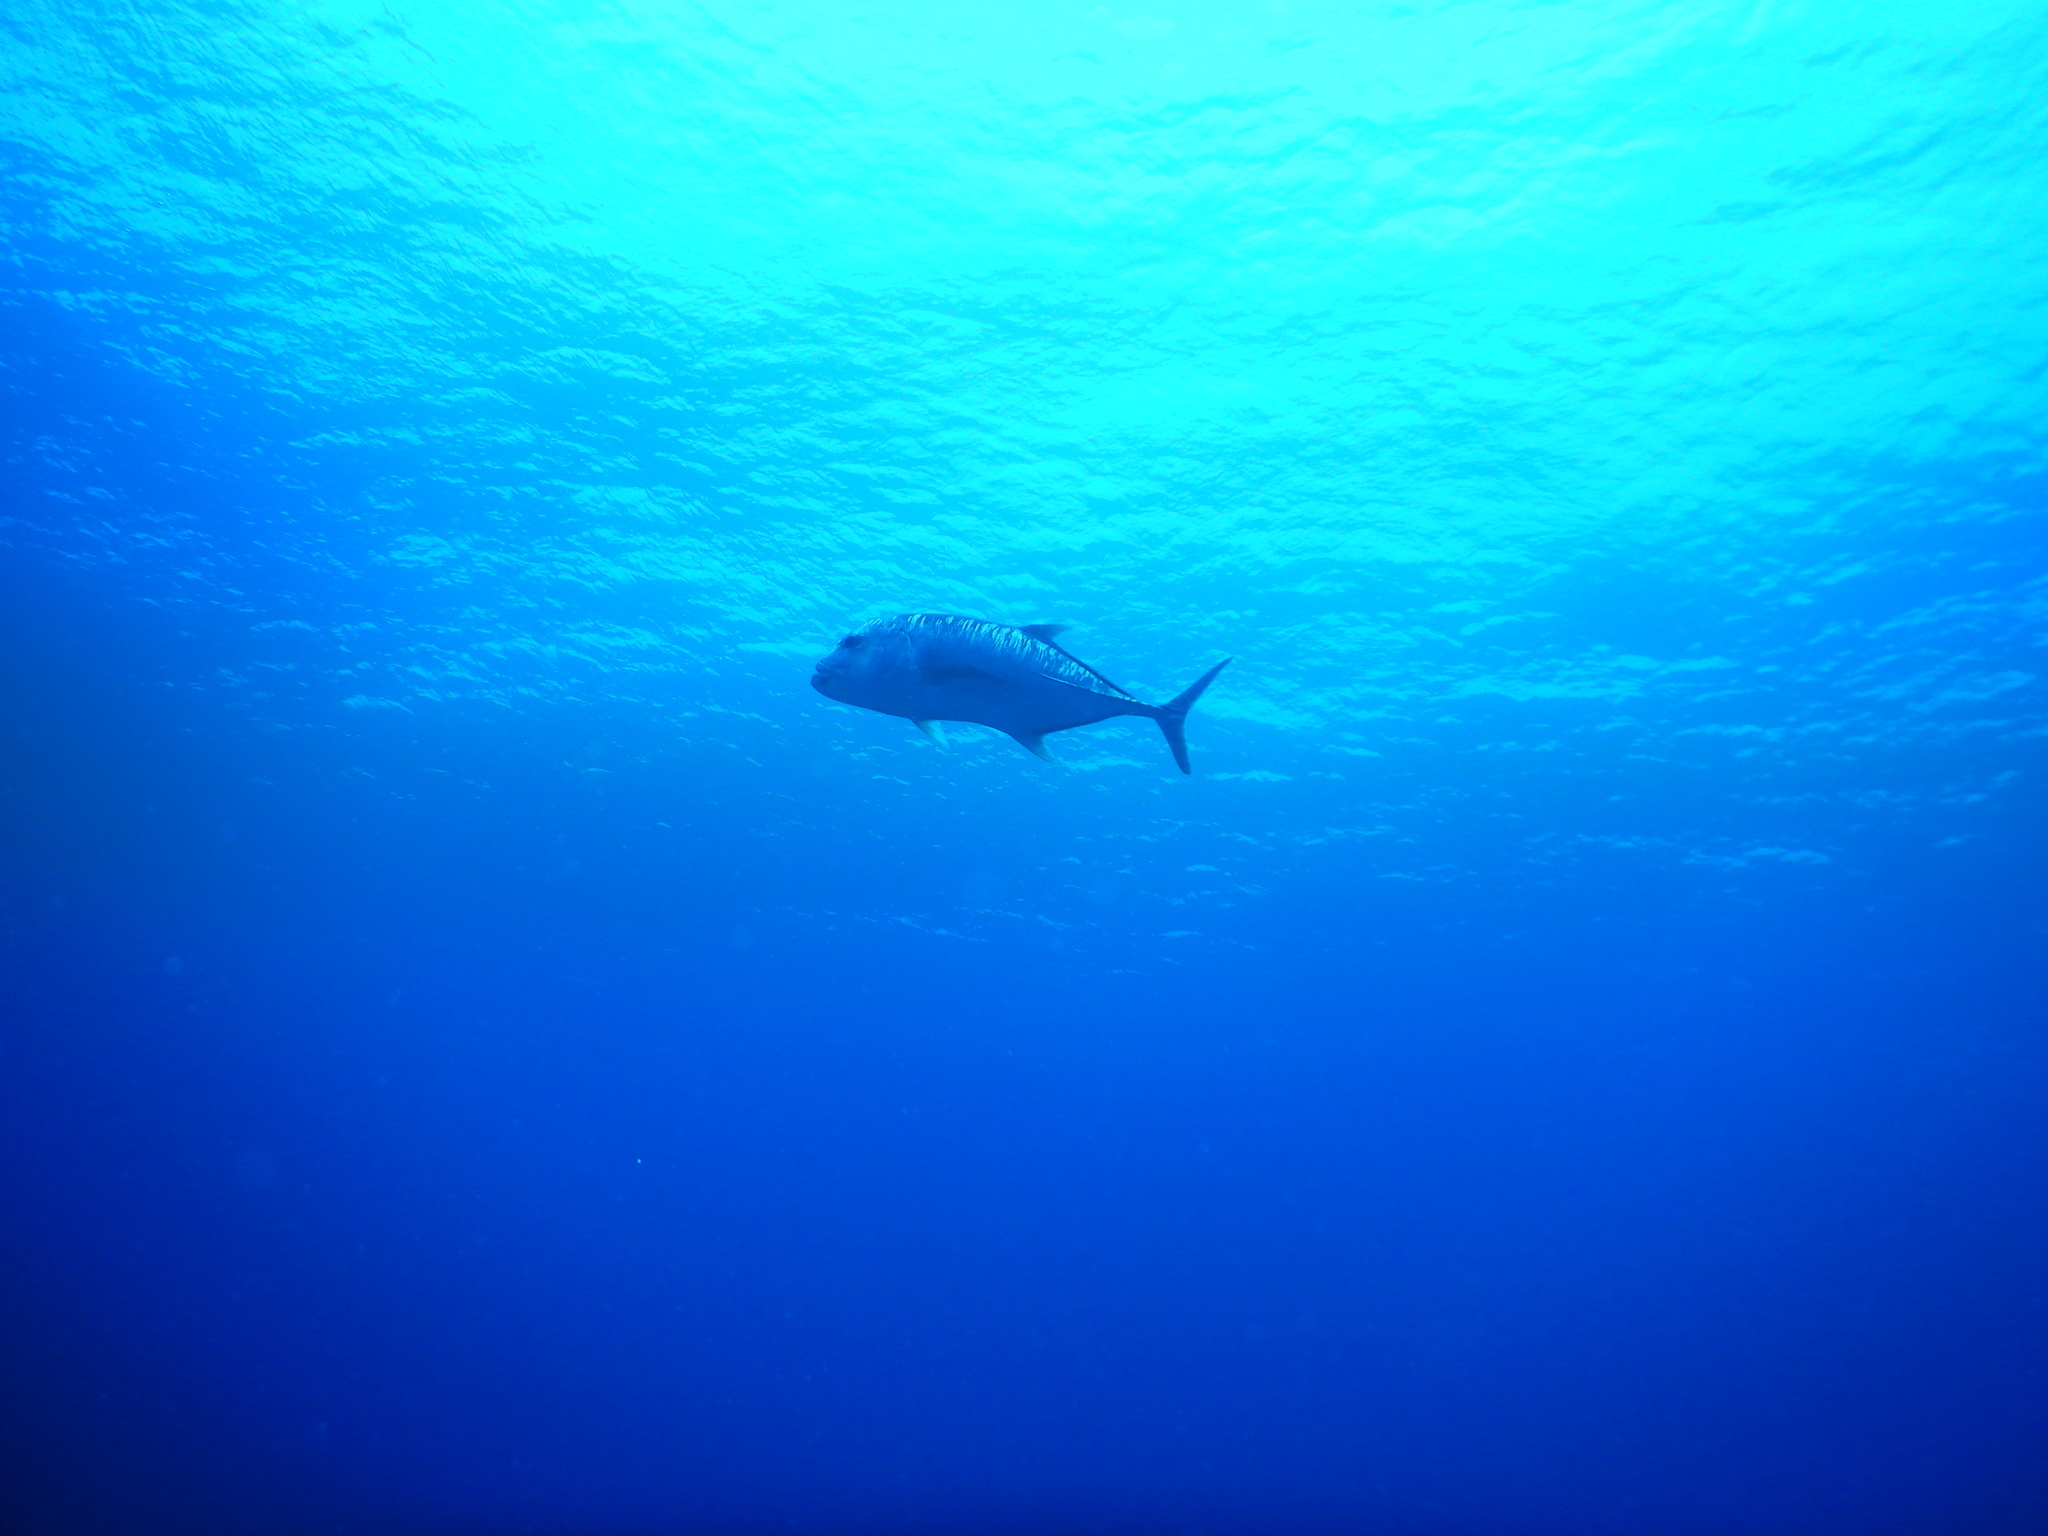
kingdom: Animalia
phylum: Chordata
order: Perciformes
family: Carangidae
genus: Caranx
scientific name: Caranx ignobilis
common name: Giant trevally
